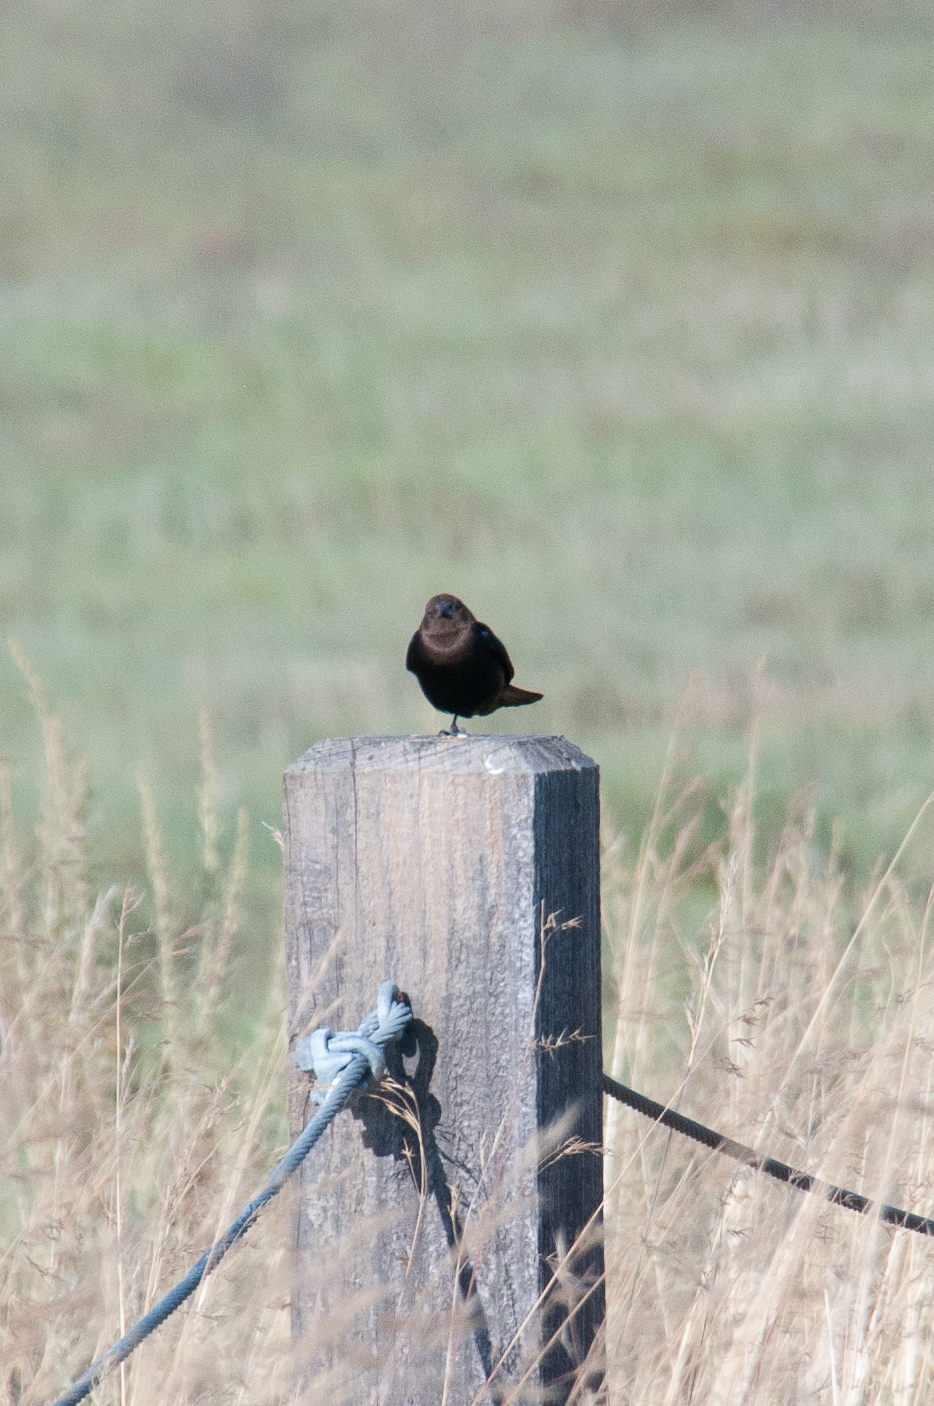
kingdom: Animalia
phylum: Chordata
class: Aves
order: Passeriformes
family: Icteridae
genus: Molothrus
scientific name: Molothrus ater
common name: Brown-headed cowbird
